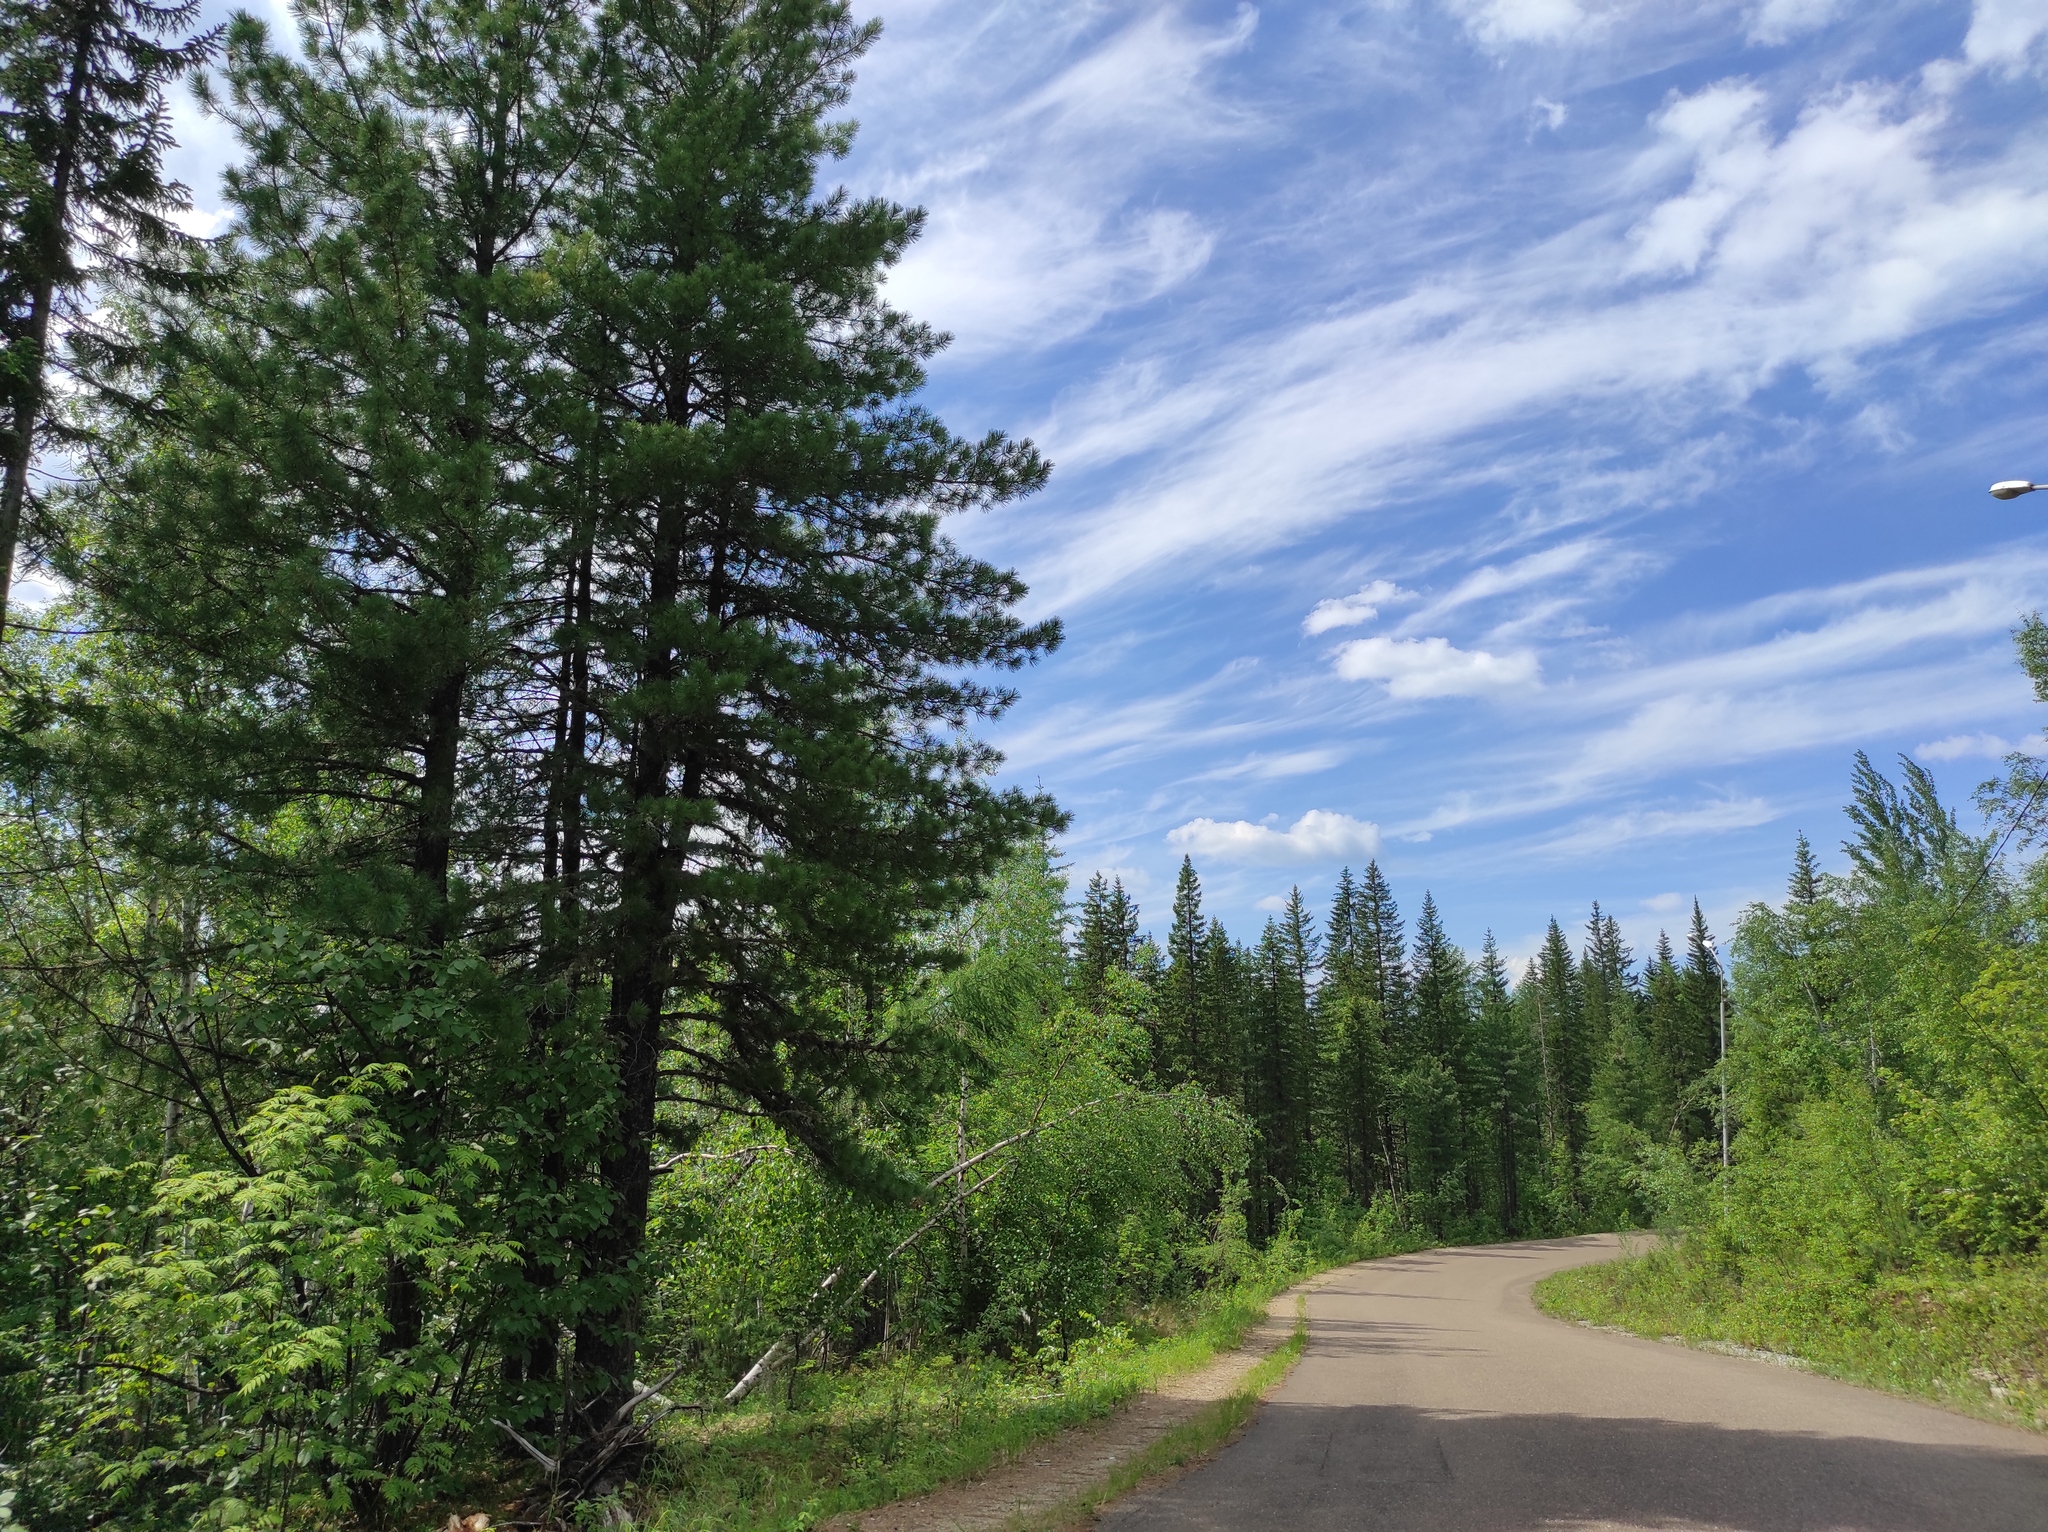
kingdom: Plantae
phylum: Tracheophyta
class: Pinopsida
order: Pinales
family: Pinaceae
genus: Pinus
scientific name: Pinus sibirica
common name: Siberian pine
